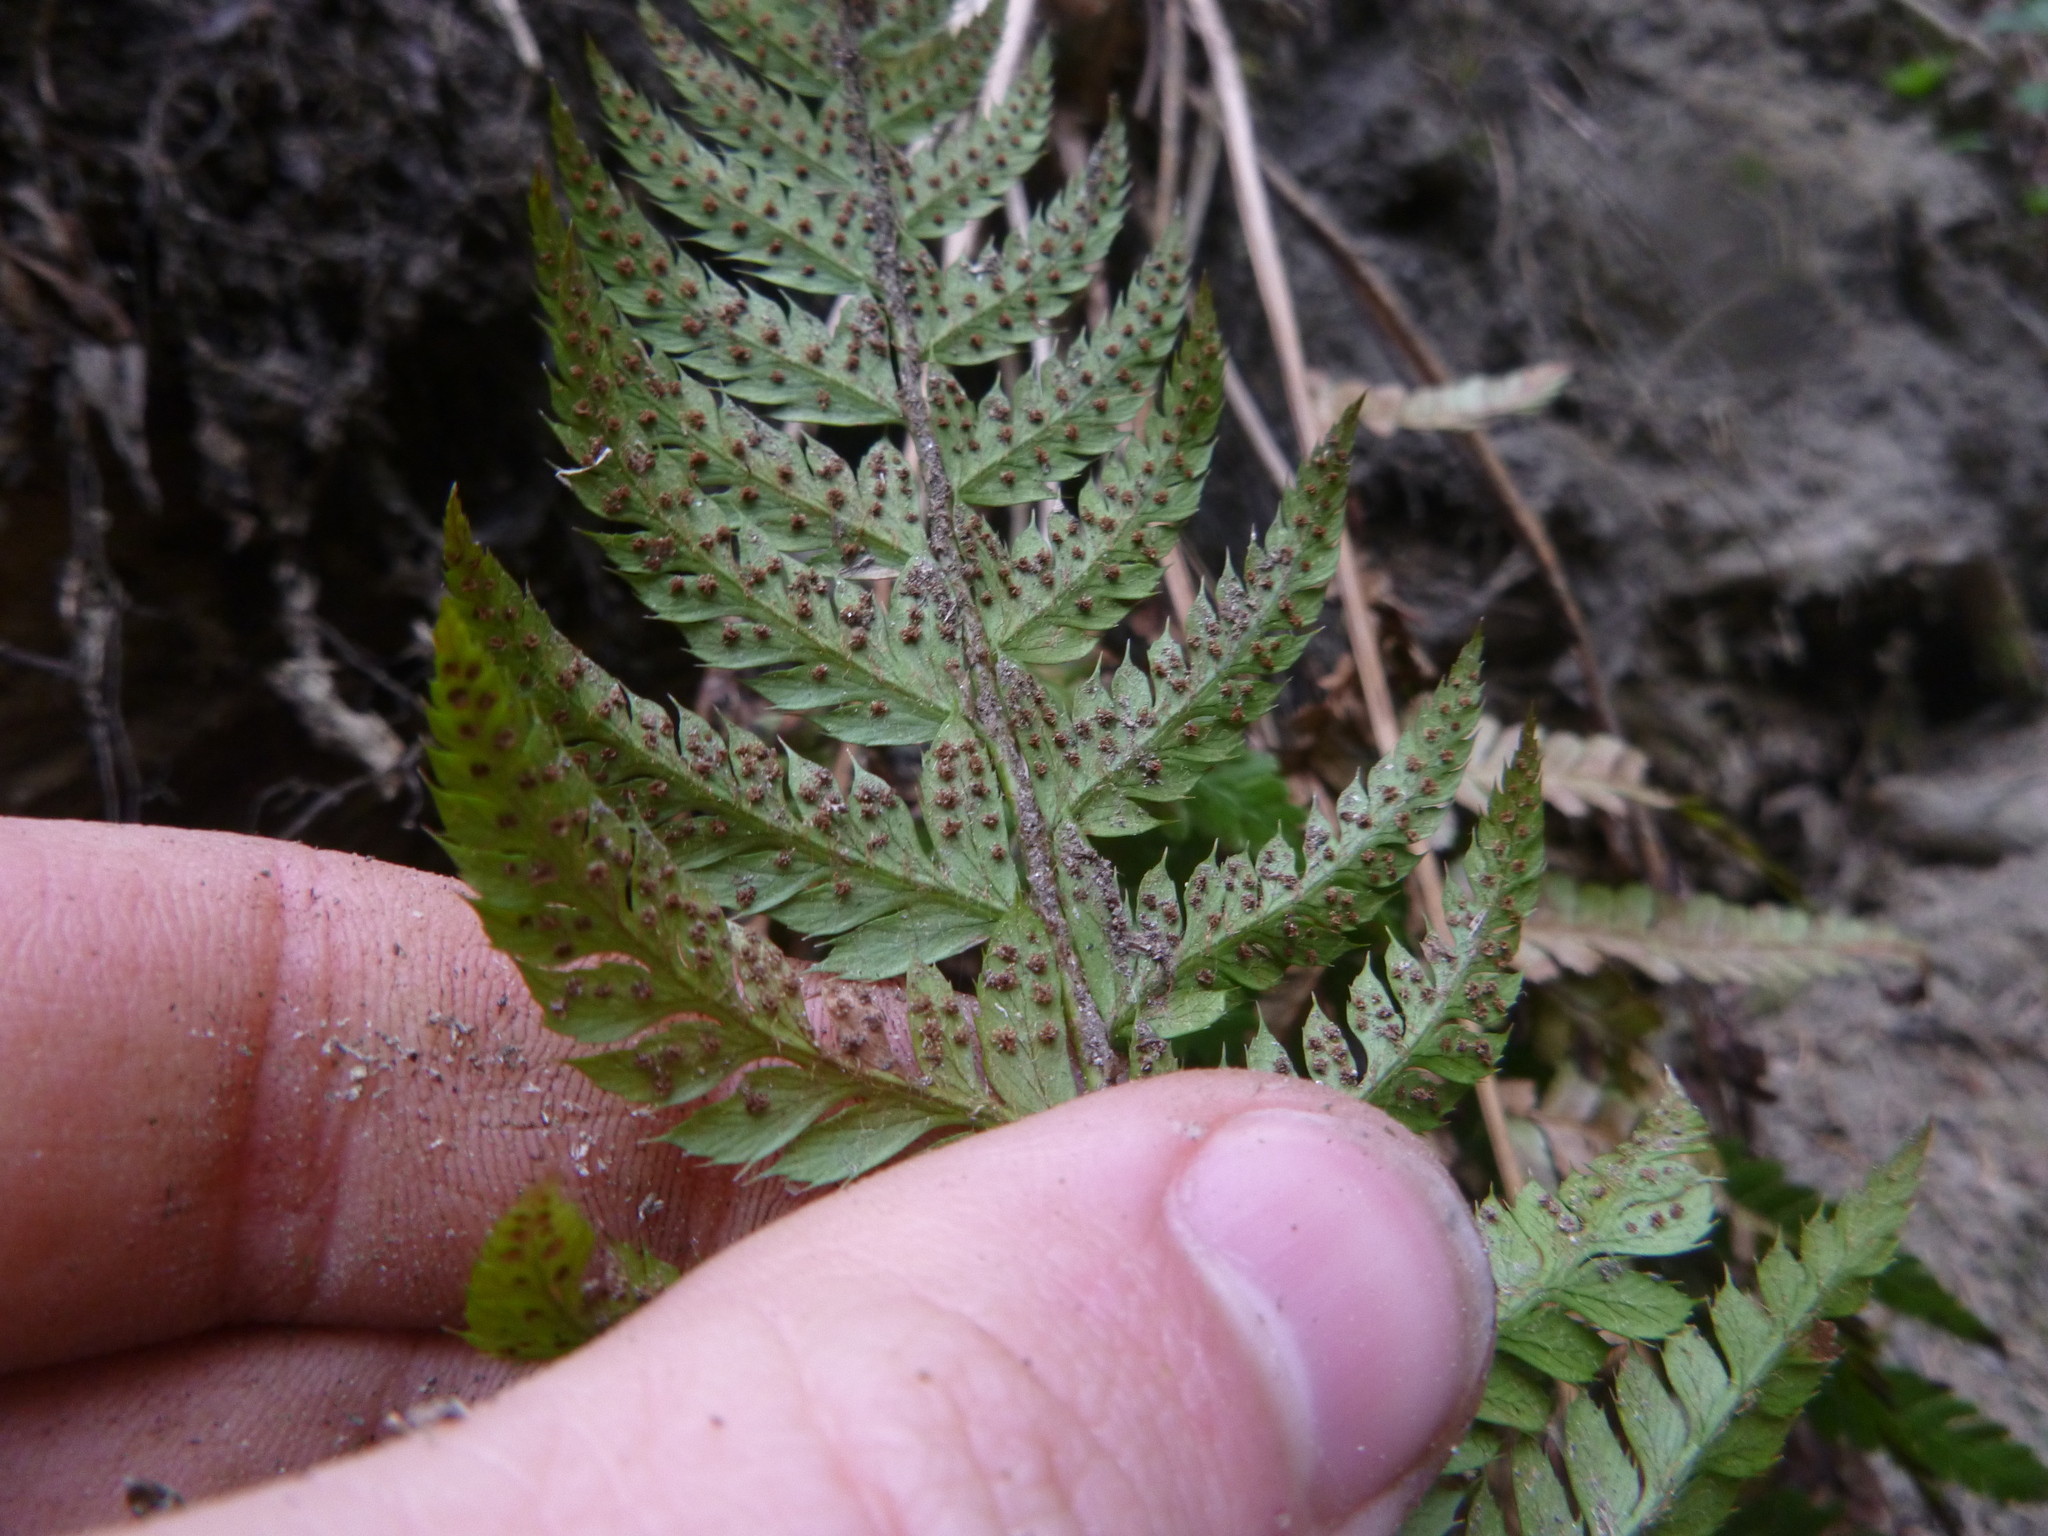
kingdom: Plantae
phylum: Tracheophyta
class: Polypodiopsida
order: Polypodiales
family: Dryopteridaceae
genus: Polystichum
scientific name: Polystichum aculeatum
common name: Hard shield-fern
